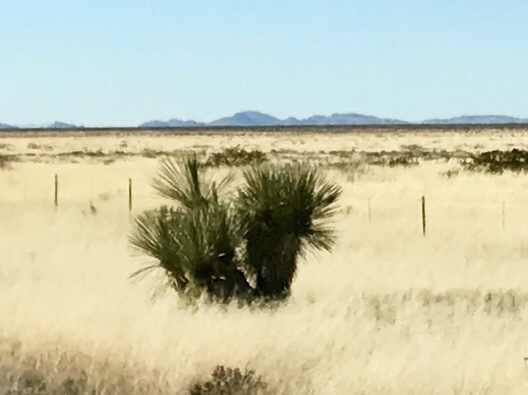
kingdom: Plantae
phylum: Tracheophyta
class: Liliopsida
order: Asparagales
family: Asparagaceae
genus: Yucca
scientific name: Yucca elata
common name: Palmella
